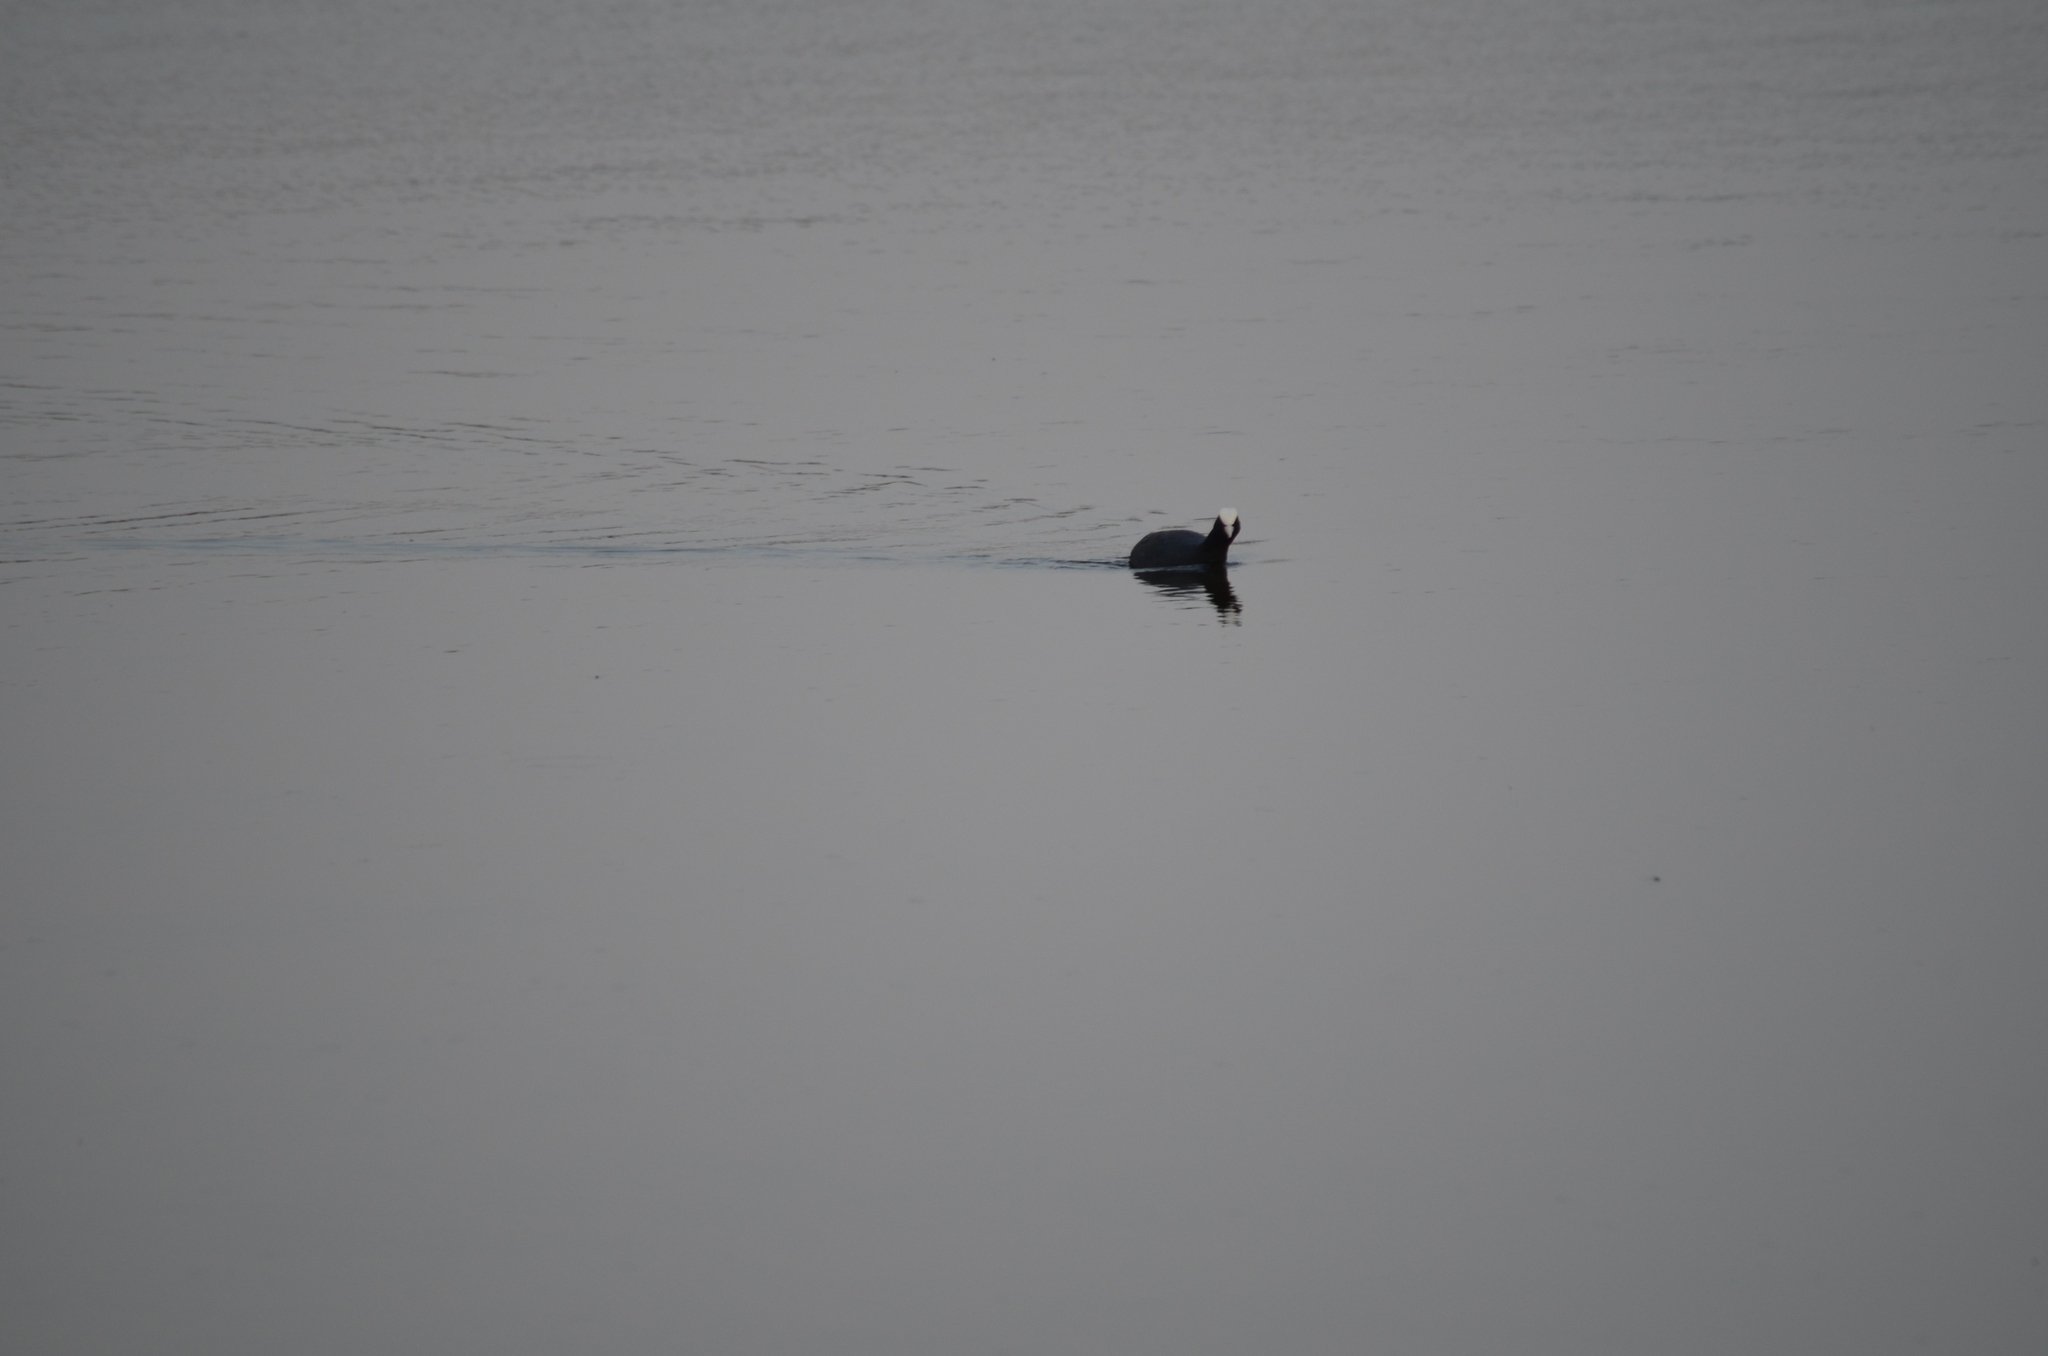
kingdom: Animalia
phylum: Chordata
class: Aves
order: Gruiformes
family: Rallidae
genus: Fulica
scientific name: Fulica atra
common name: Eurasian coot
